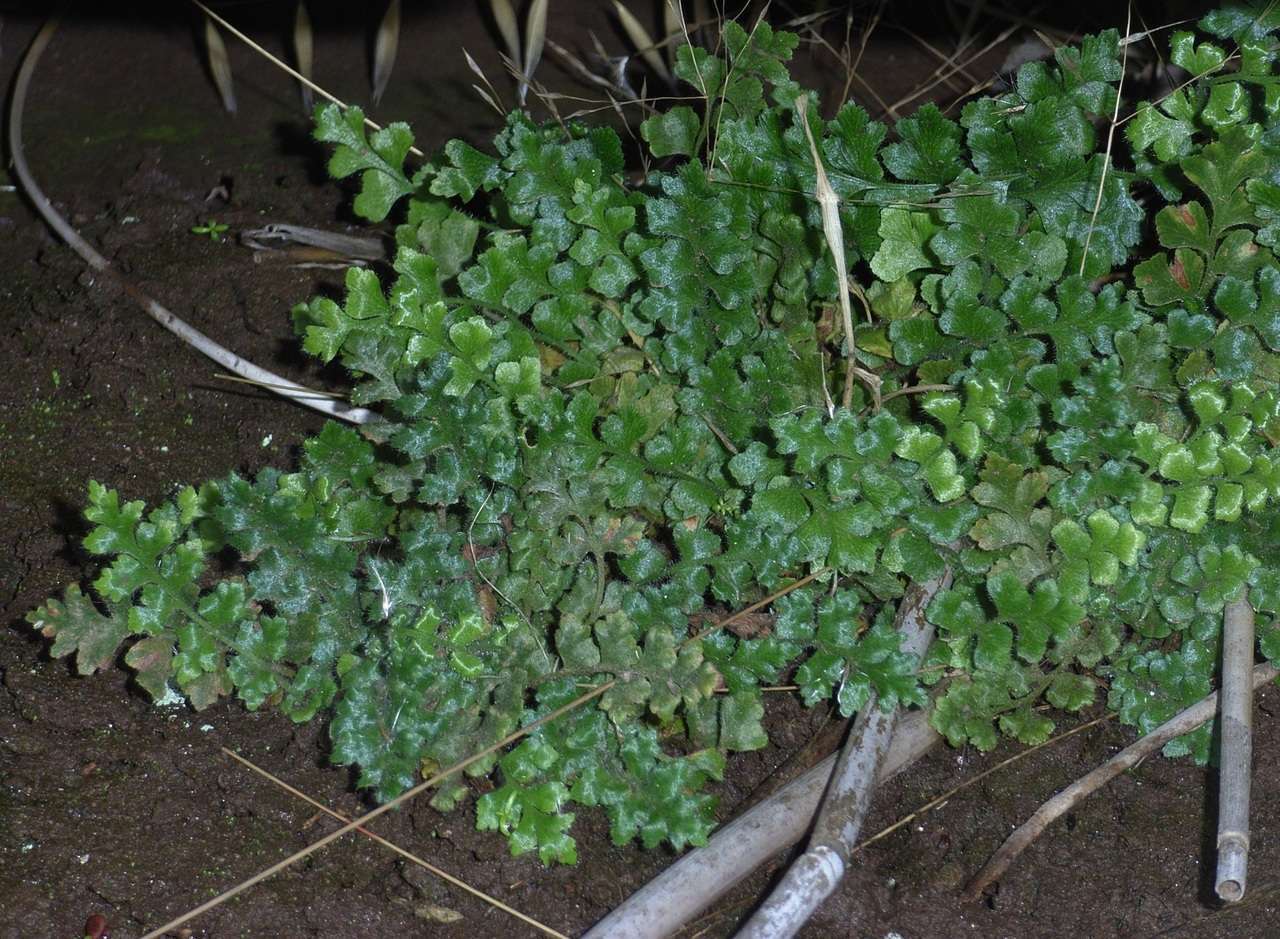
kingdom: Plantae
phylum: Tracheophyta
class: Polypodiopsida
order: Polypodiales
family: Aspleniaceae
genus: Asplenium
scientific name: Asplenium subglandulosum
